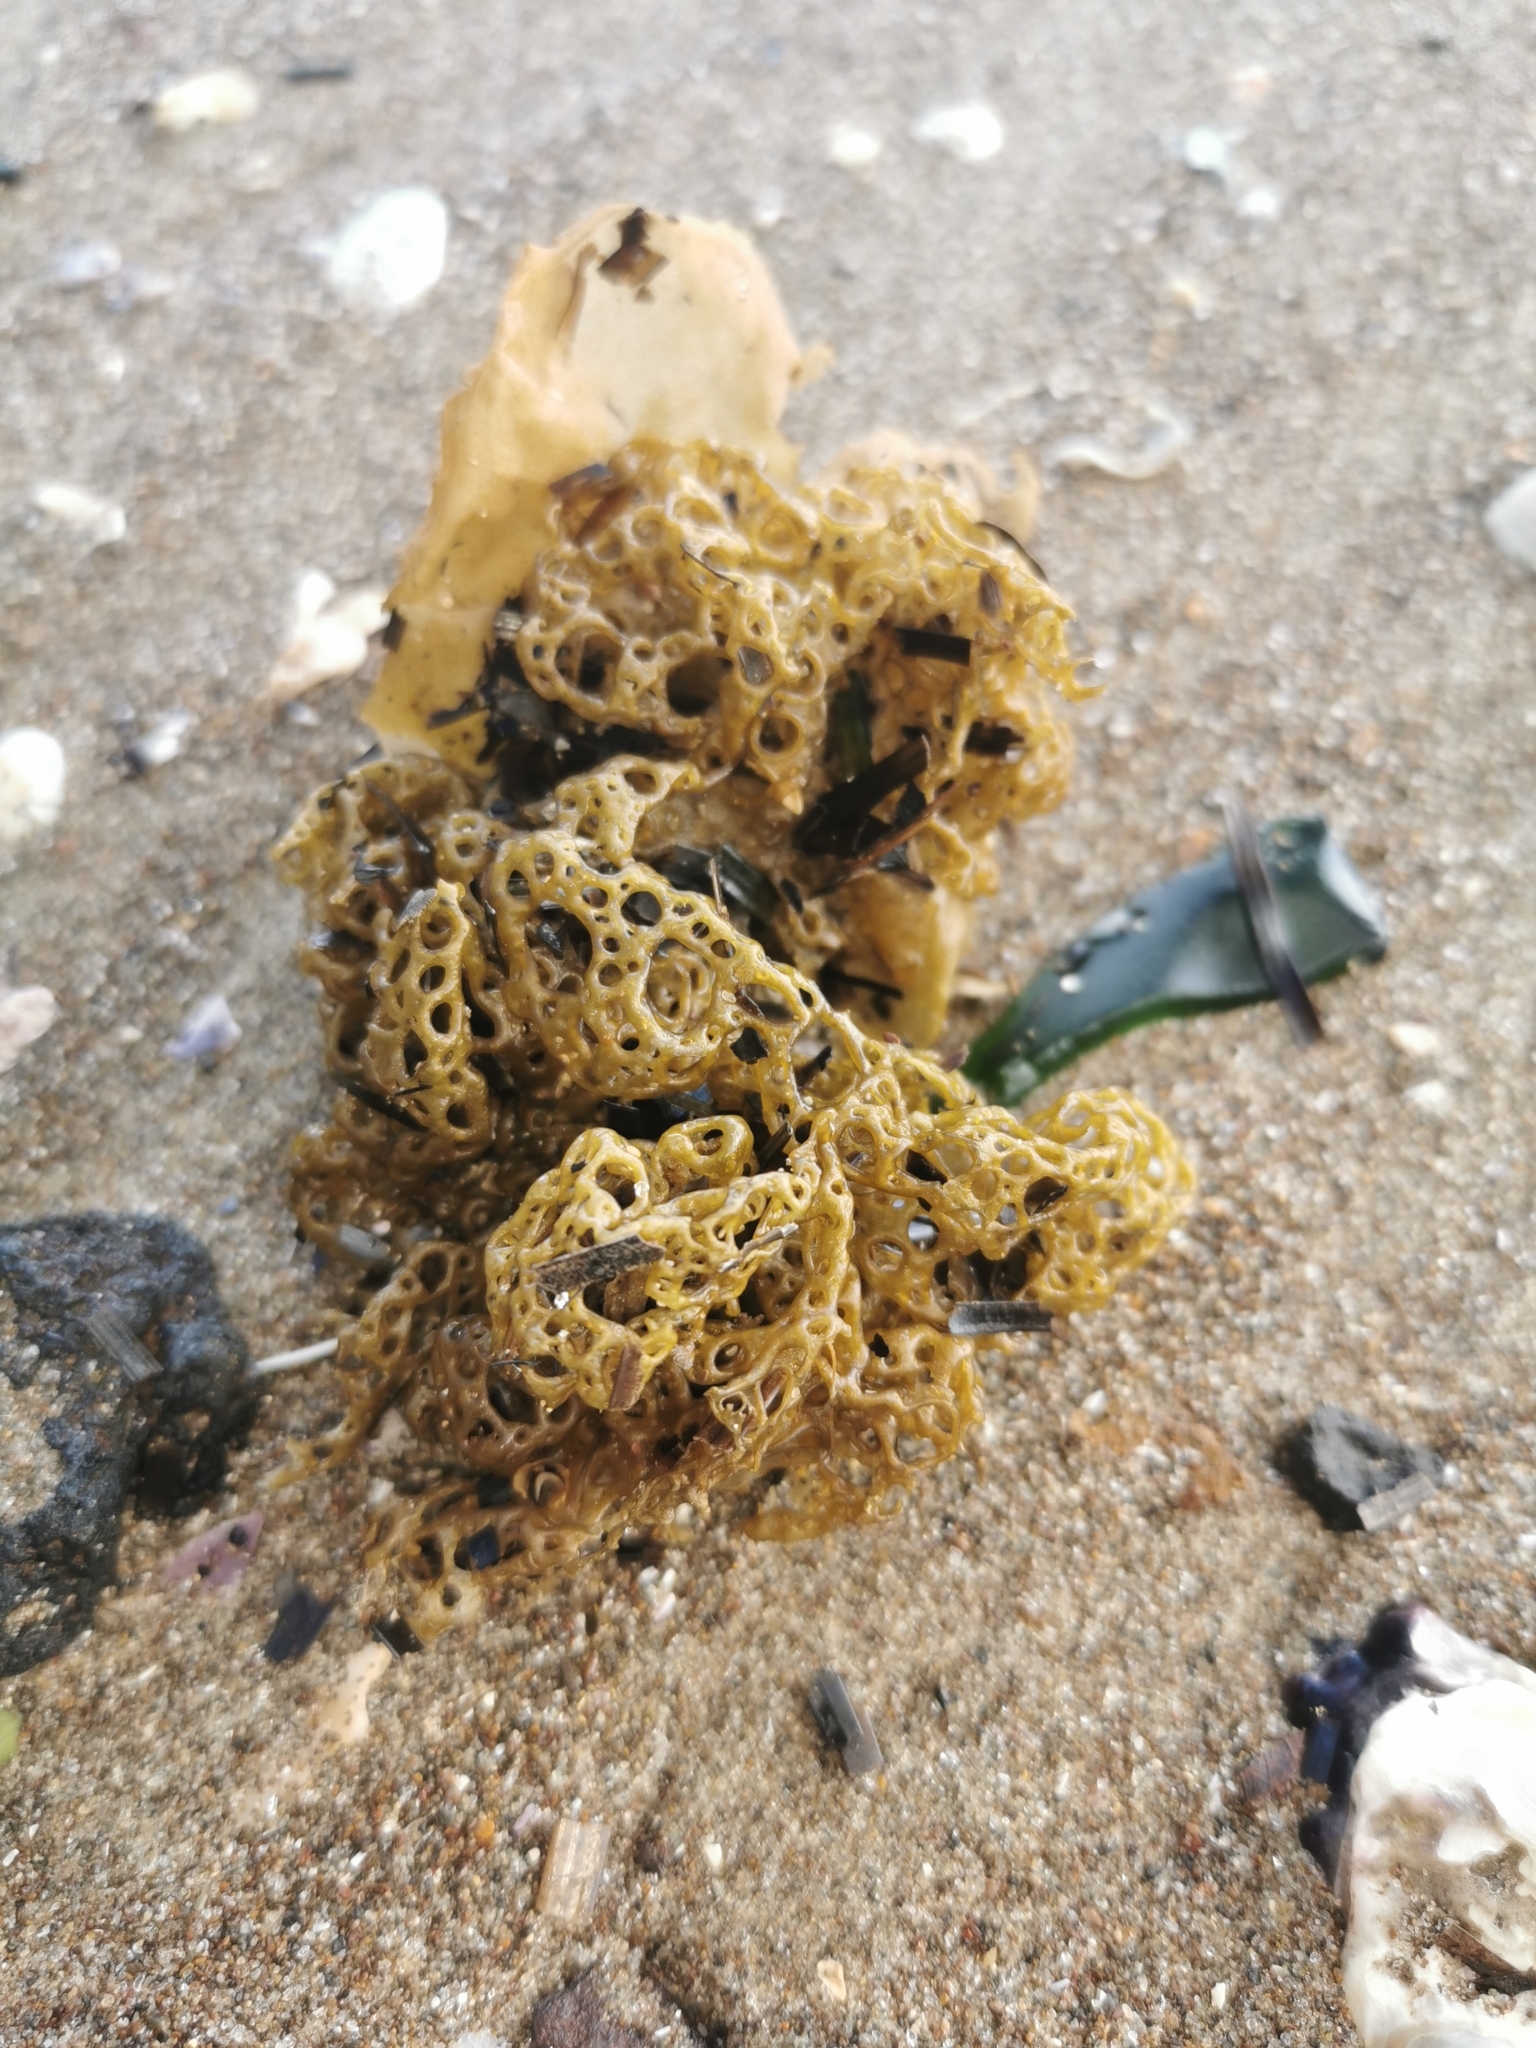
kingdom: Chromista
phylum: Ochrophyta
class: Phaeophyceae
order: Scytosiphonales
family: Scytosiphonaceae
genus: Hydroclathrus
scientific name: Hydroclathrus clathratus
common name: Swiss cheese algae
